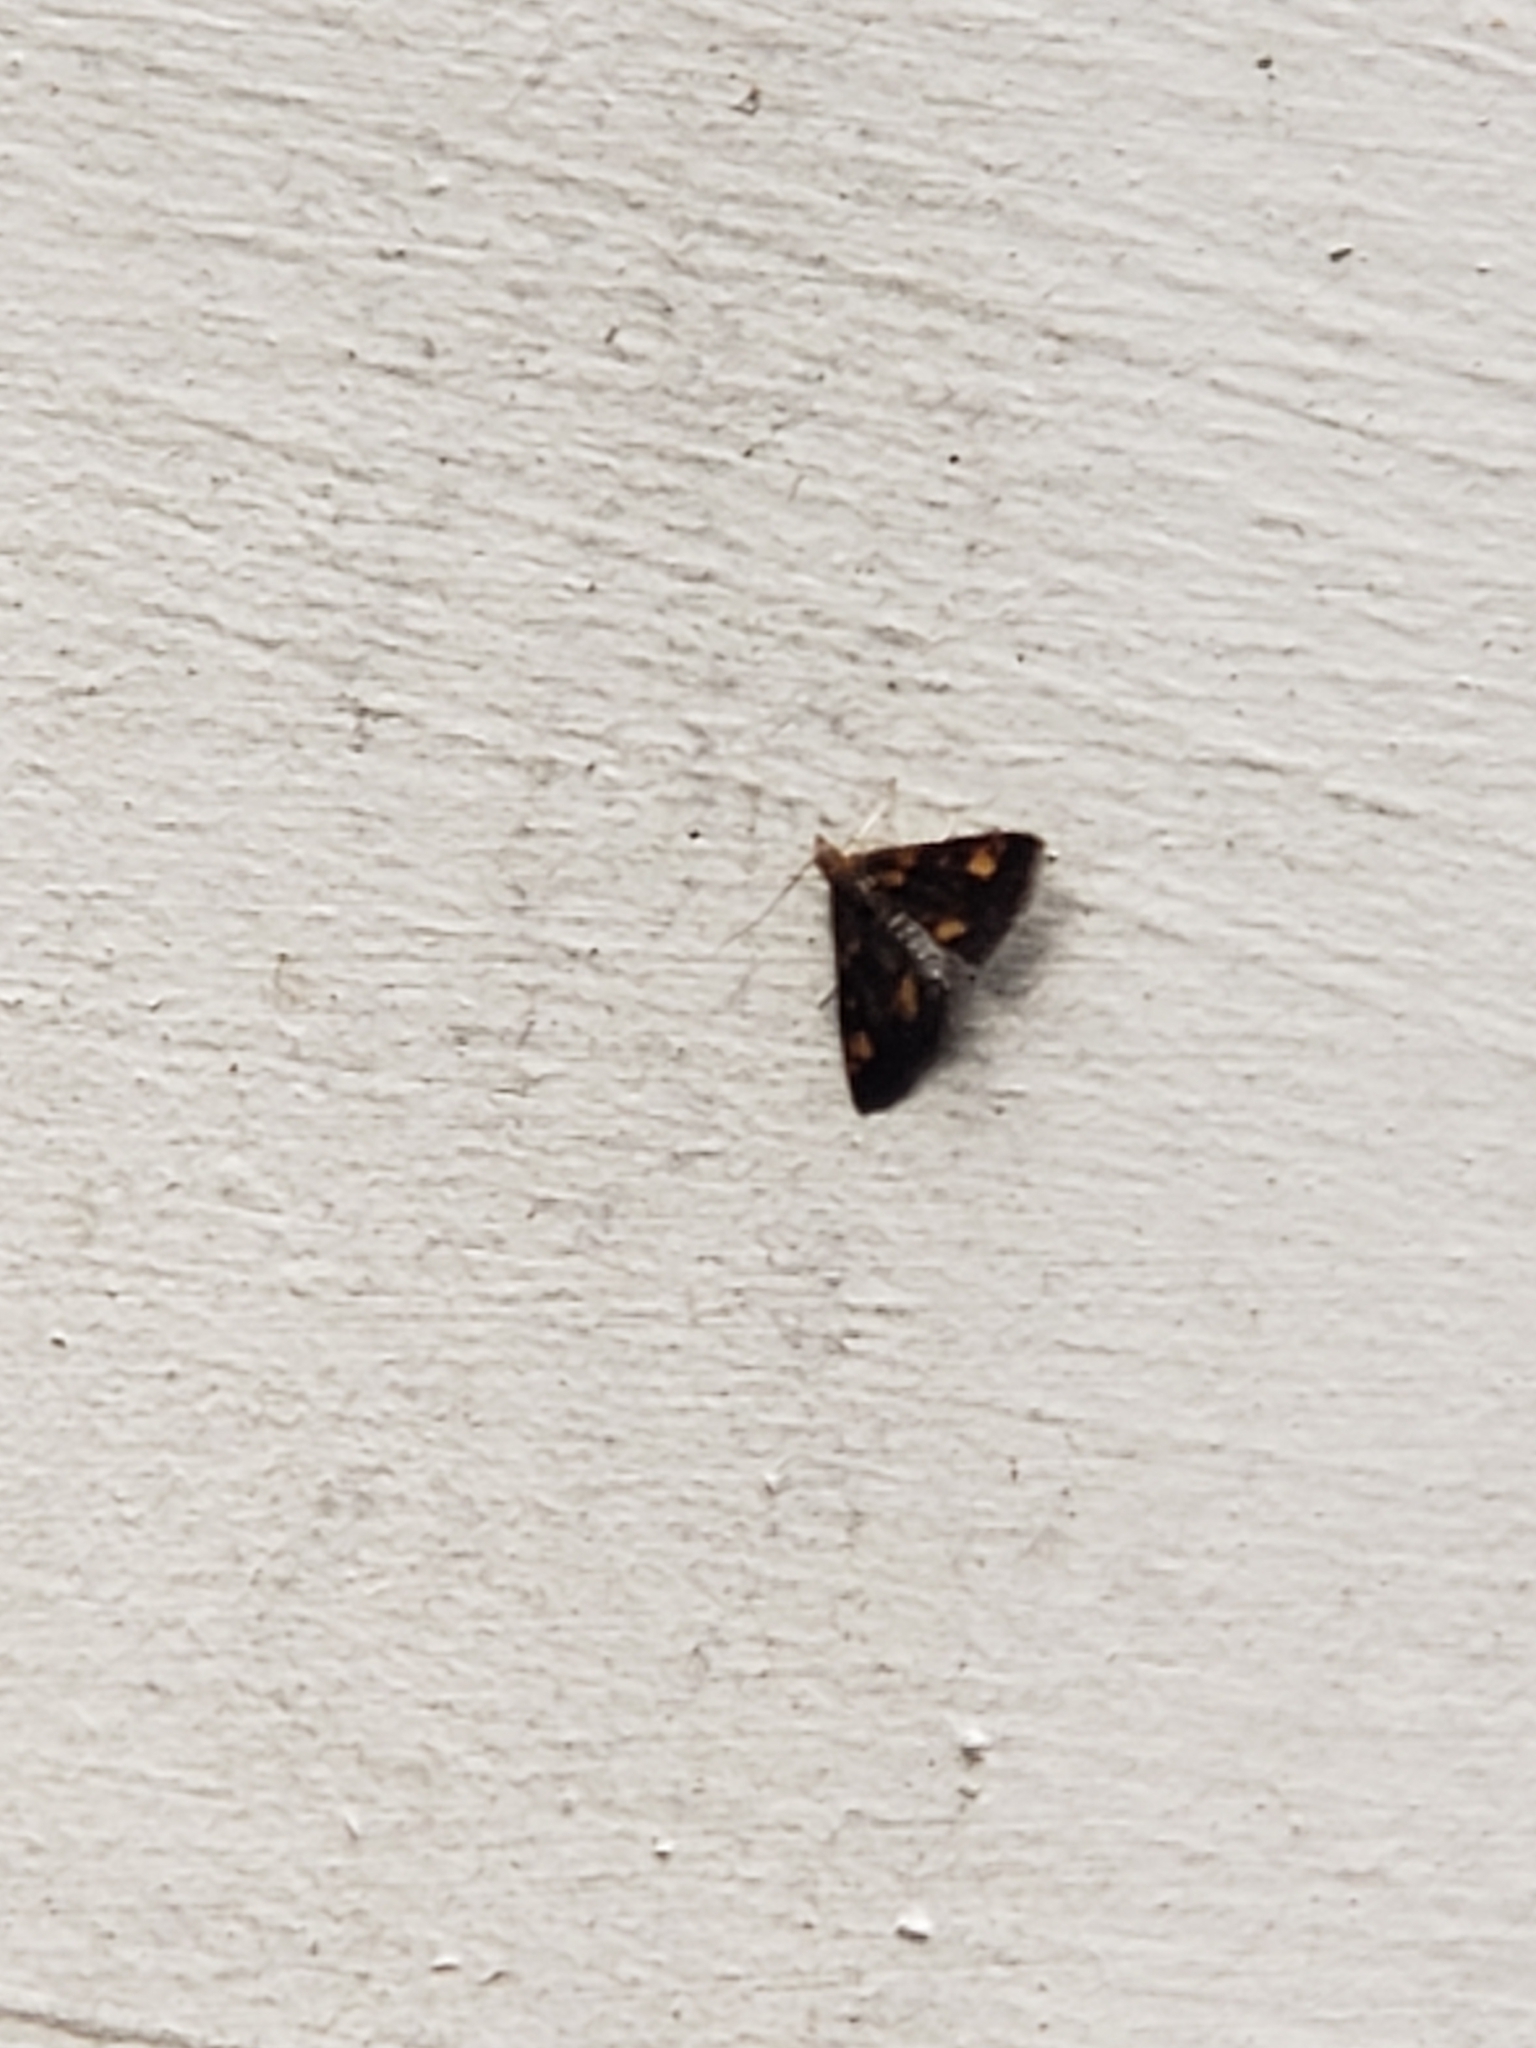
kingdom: Animalia
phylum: Arthropoda
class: Insecta
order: Lepidoptera
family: Crambidae
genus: Pyrausta
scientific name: Pyrausta orphisalis
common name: Orange mint moth
